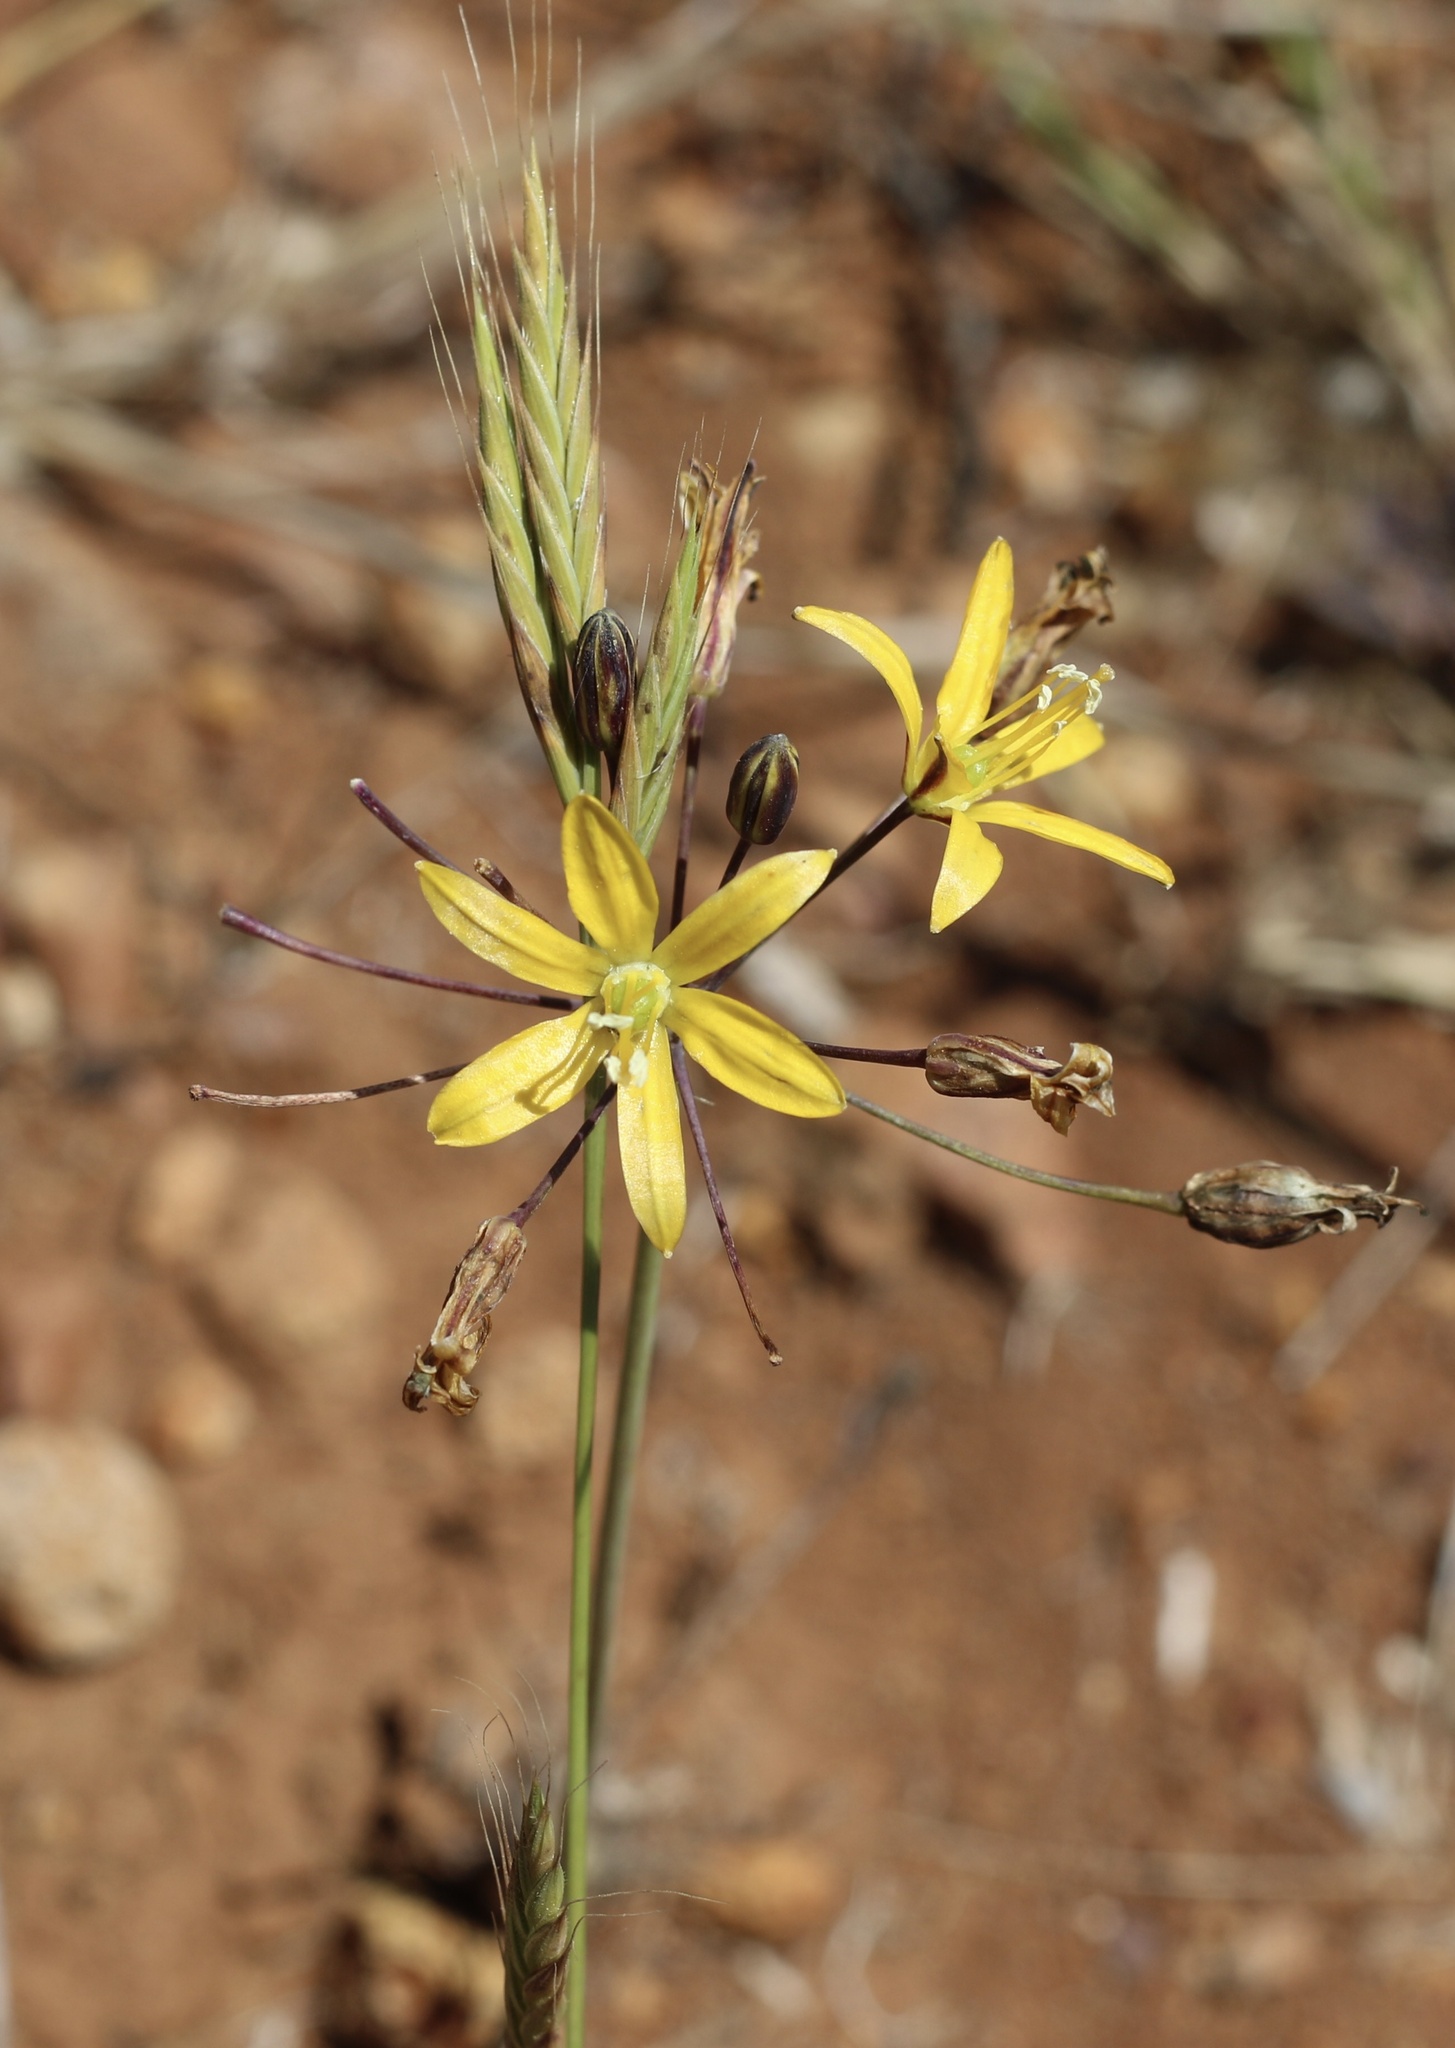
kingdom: Plantae
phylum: Tracheophyta
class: Liliopsida
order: Asparagales
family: Asparagaceae
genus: Bloomeria
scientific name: Bloomeria crocea
